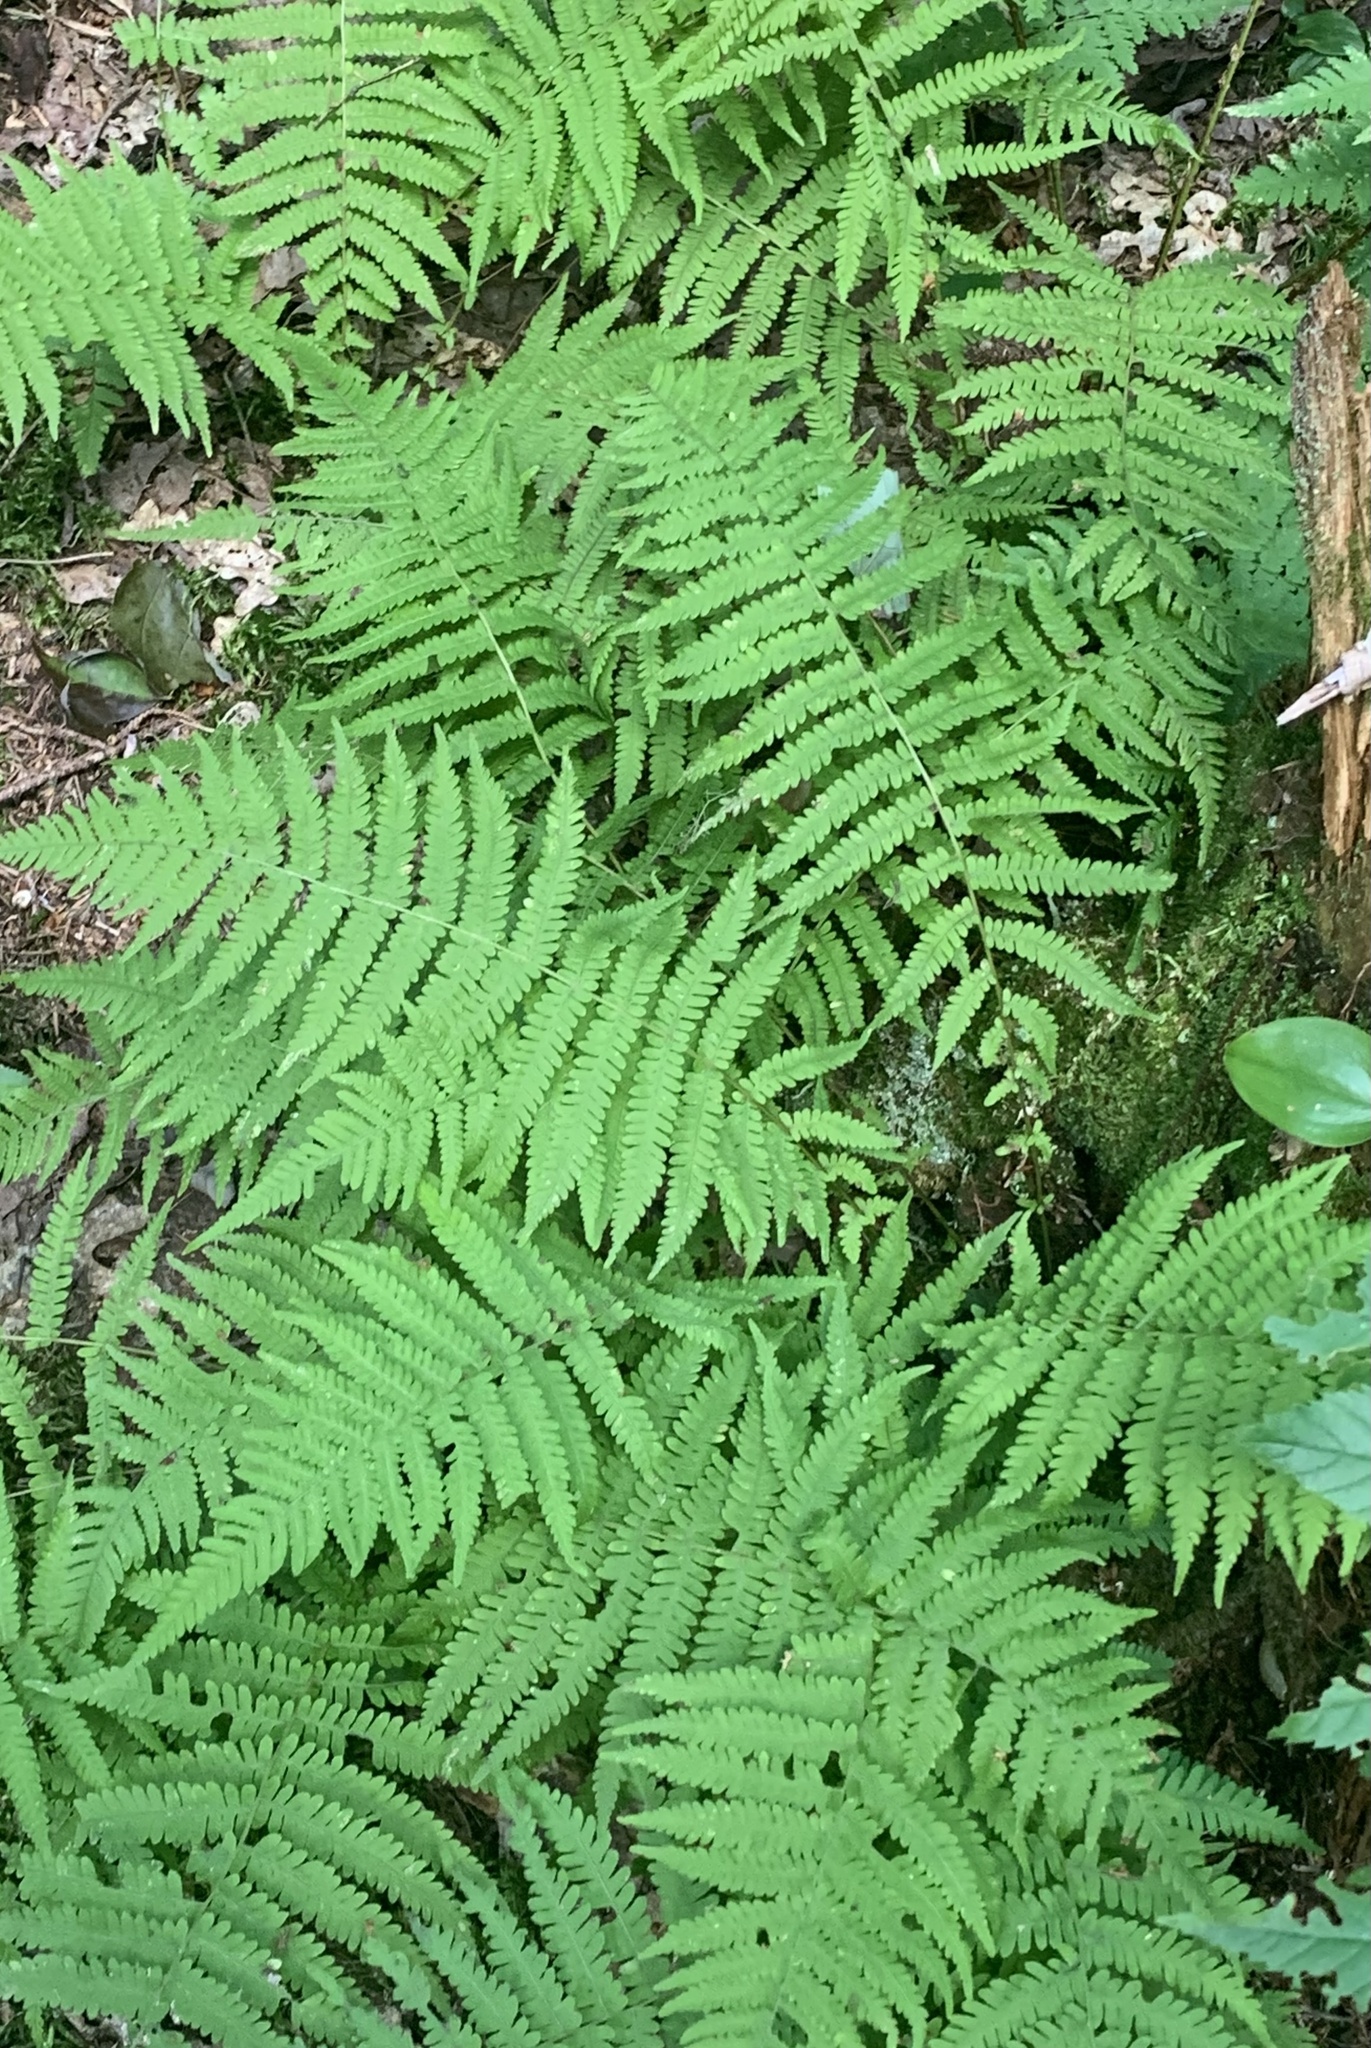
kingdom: Plantae
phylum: Tracheophyta
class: Polypodiopsida
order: Polypodiales
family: Thelypteridaceae
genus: Amauropelta
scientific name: Amauropelta noveboracensis
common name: New york fern
